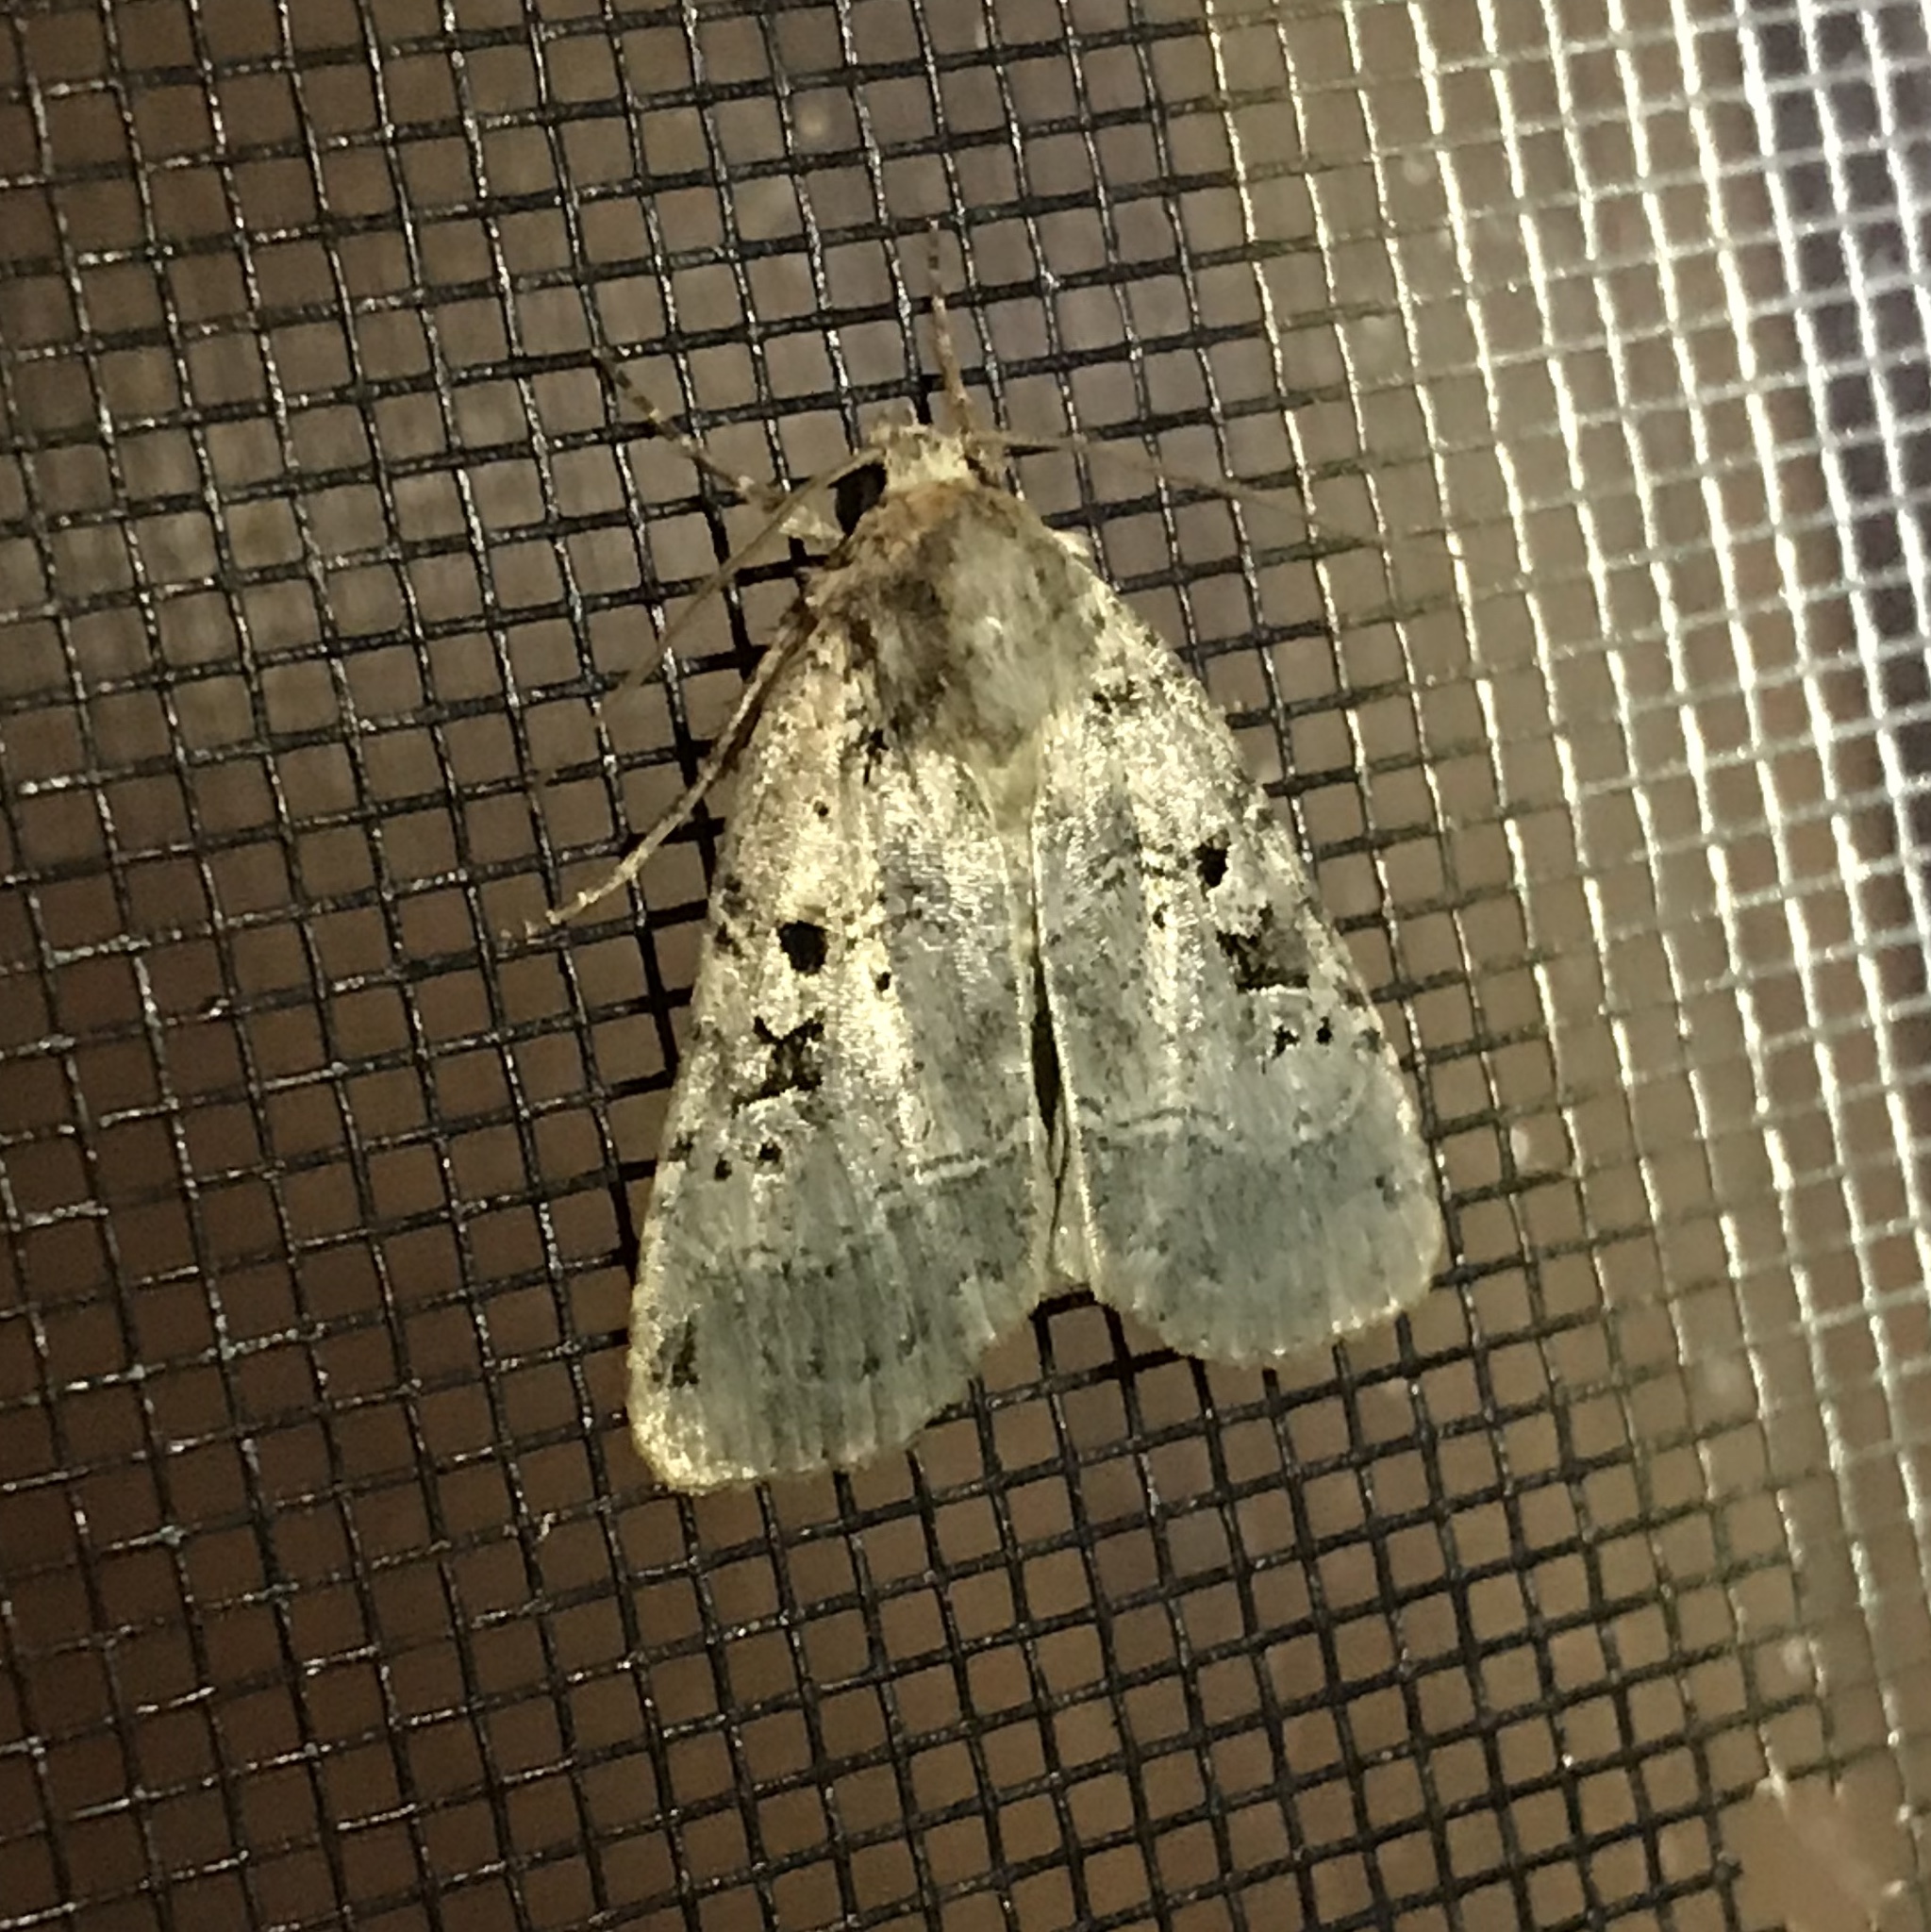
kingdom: Animalia
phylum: Arthropoda
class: Insecta
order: Lepidoptera
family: Noctuidae
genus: Xestia
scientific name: Xestia normaniana
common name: Norman's dart moth
